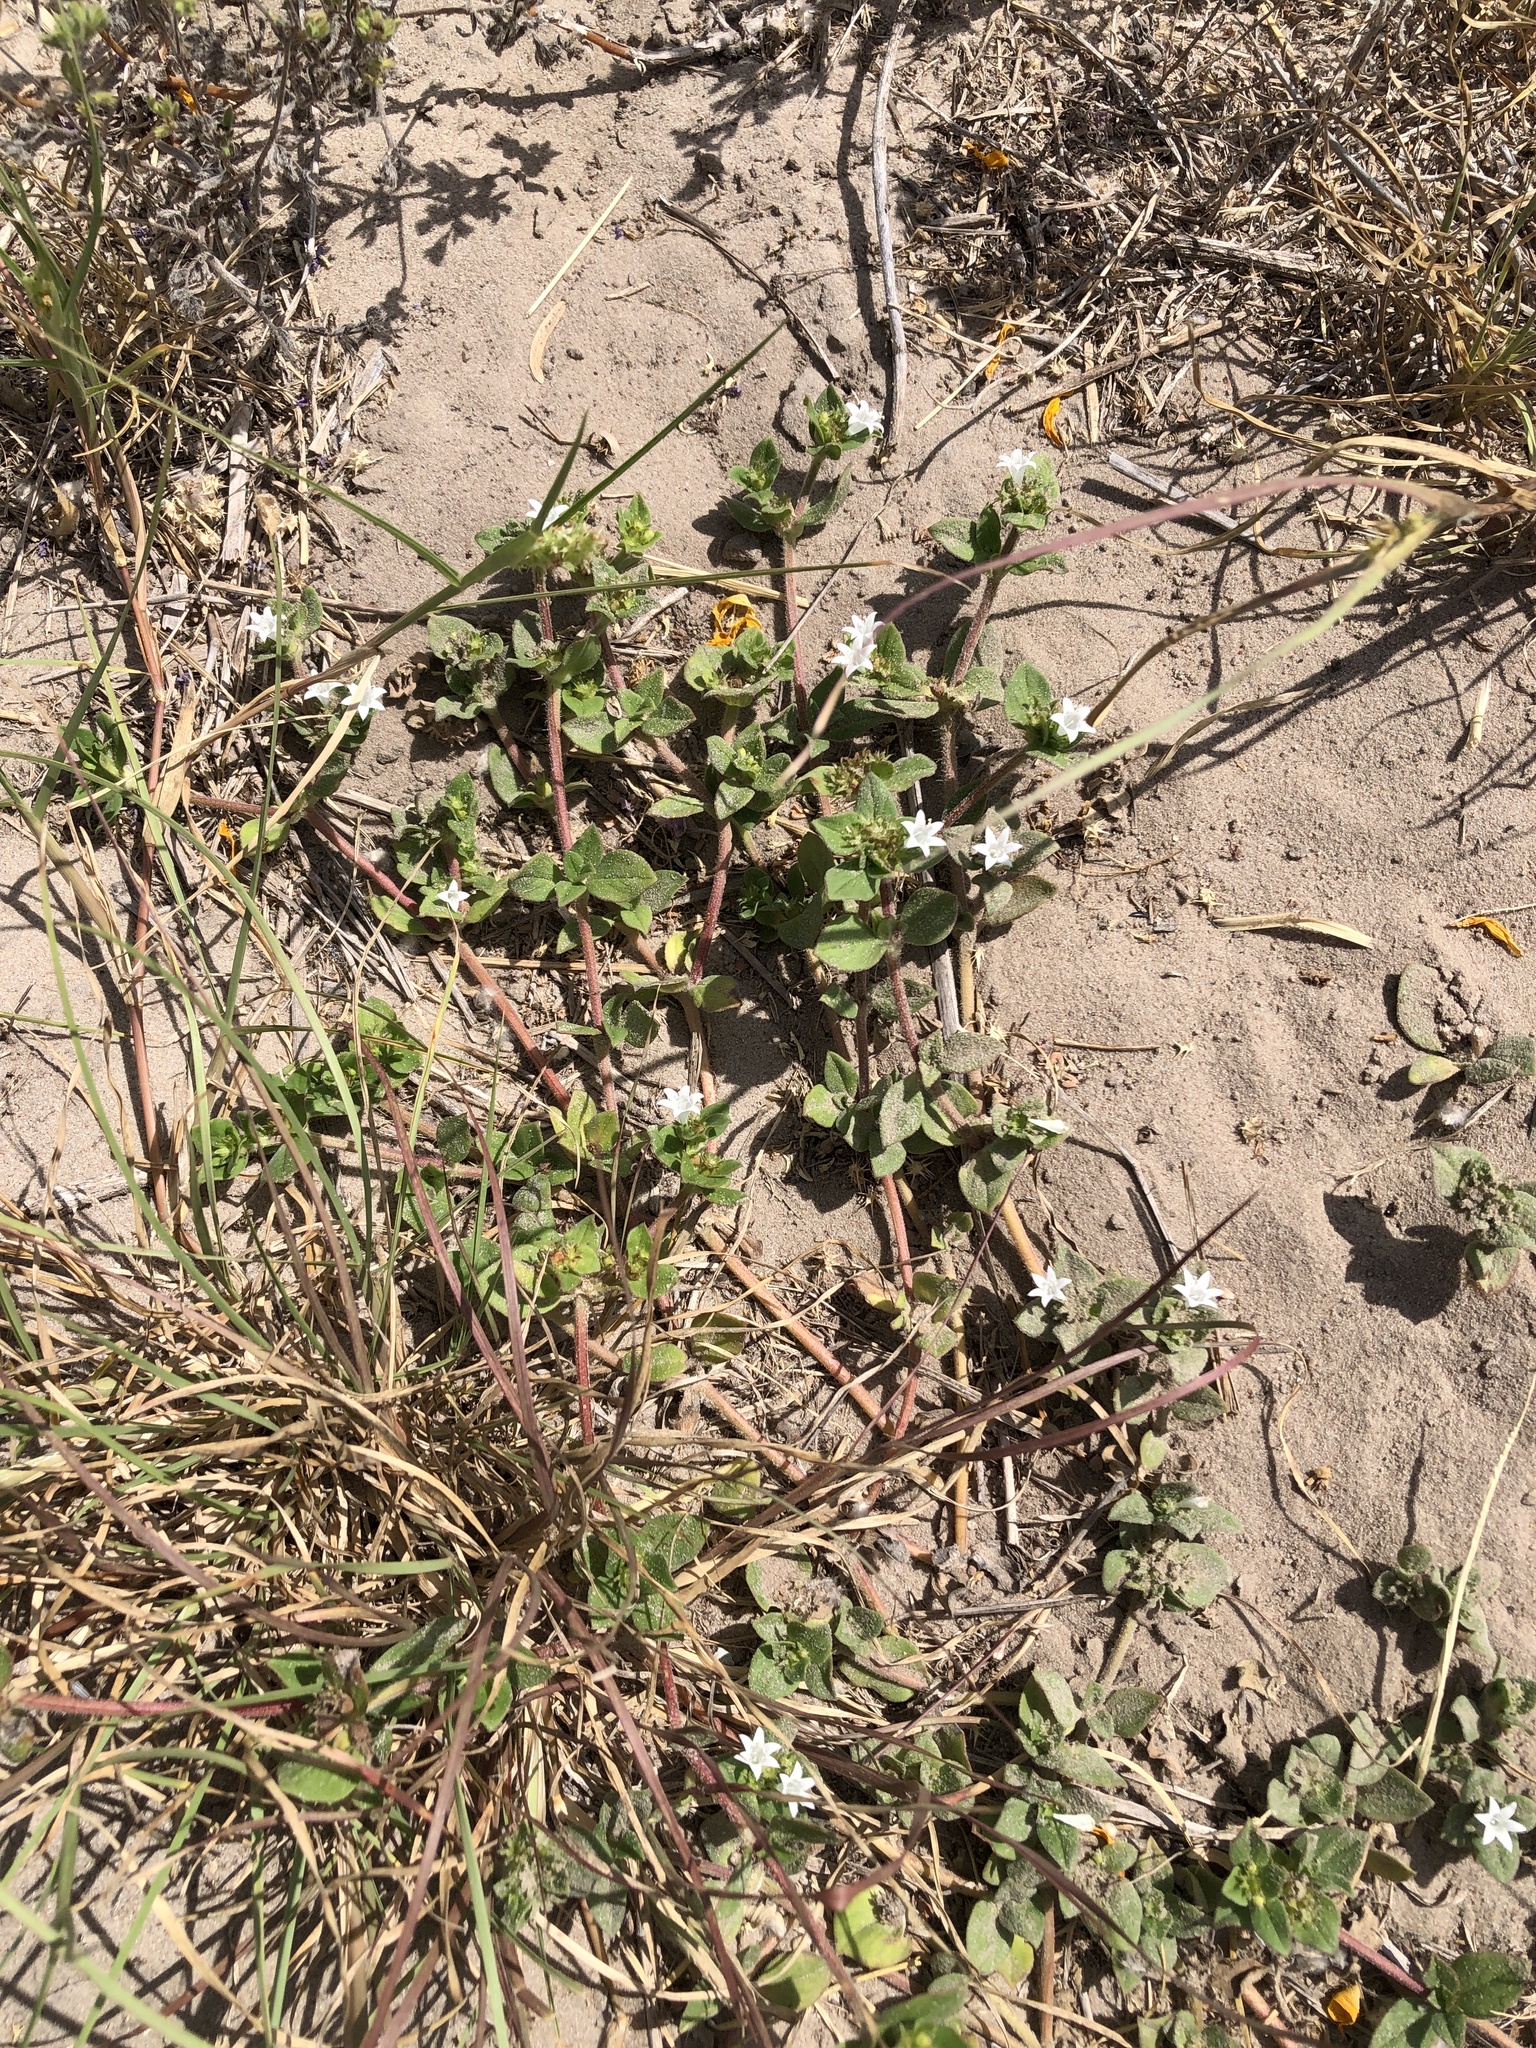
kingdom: Plantae
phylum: Tracheophyta
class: Magnoliopsida
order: Gentianales
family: Rubiaceae
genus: Richardia
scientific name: Richardia brasiliensis
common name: Tropical mexican clover
